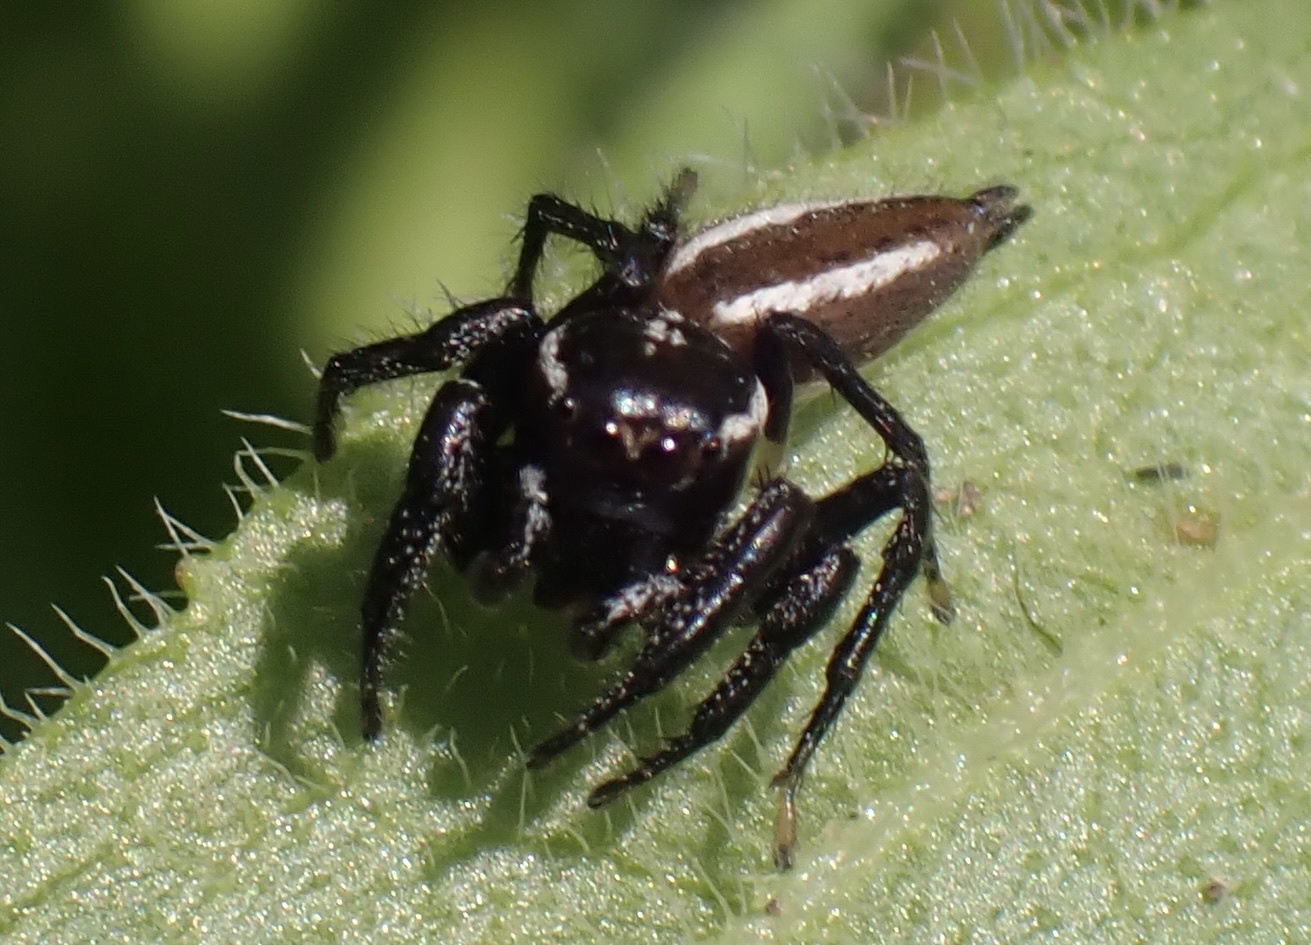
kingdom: Animalia
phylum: Arthropoda
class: Arachnida
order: Araneae
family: Salticidae
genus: Colonus
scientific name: Colonus puerperus
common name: Jumping spiders
